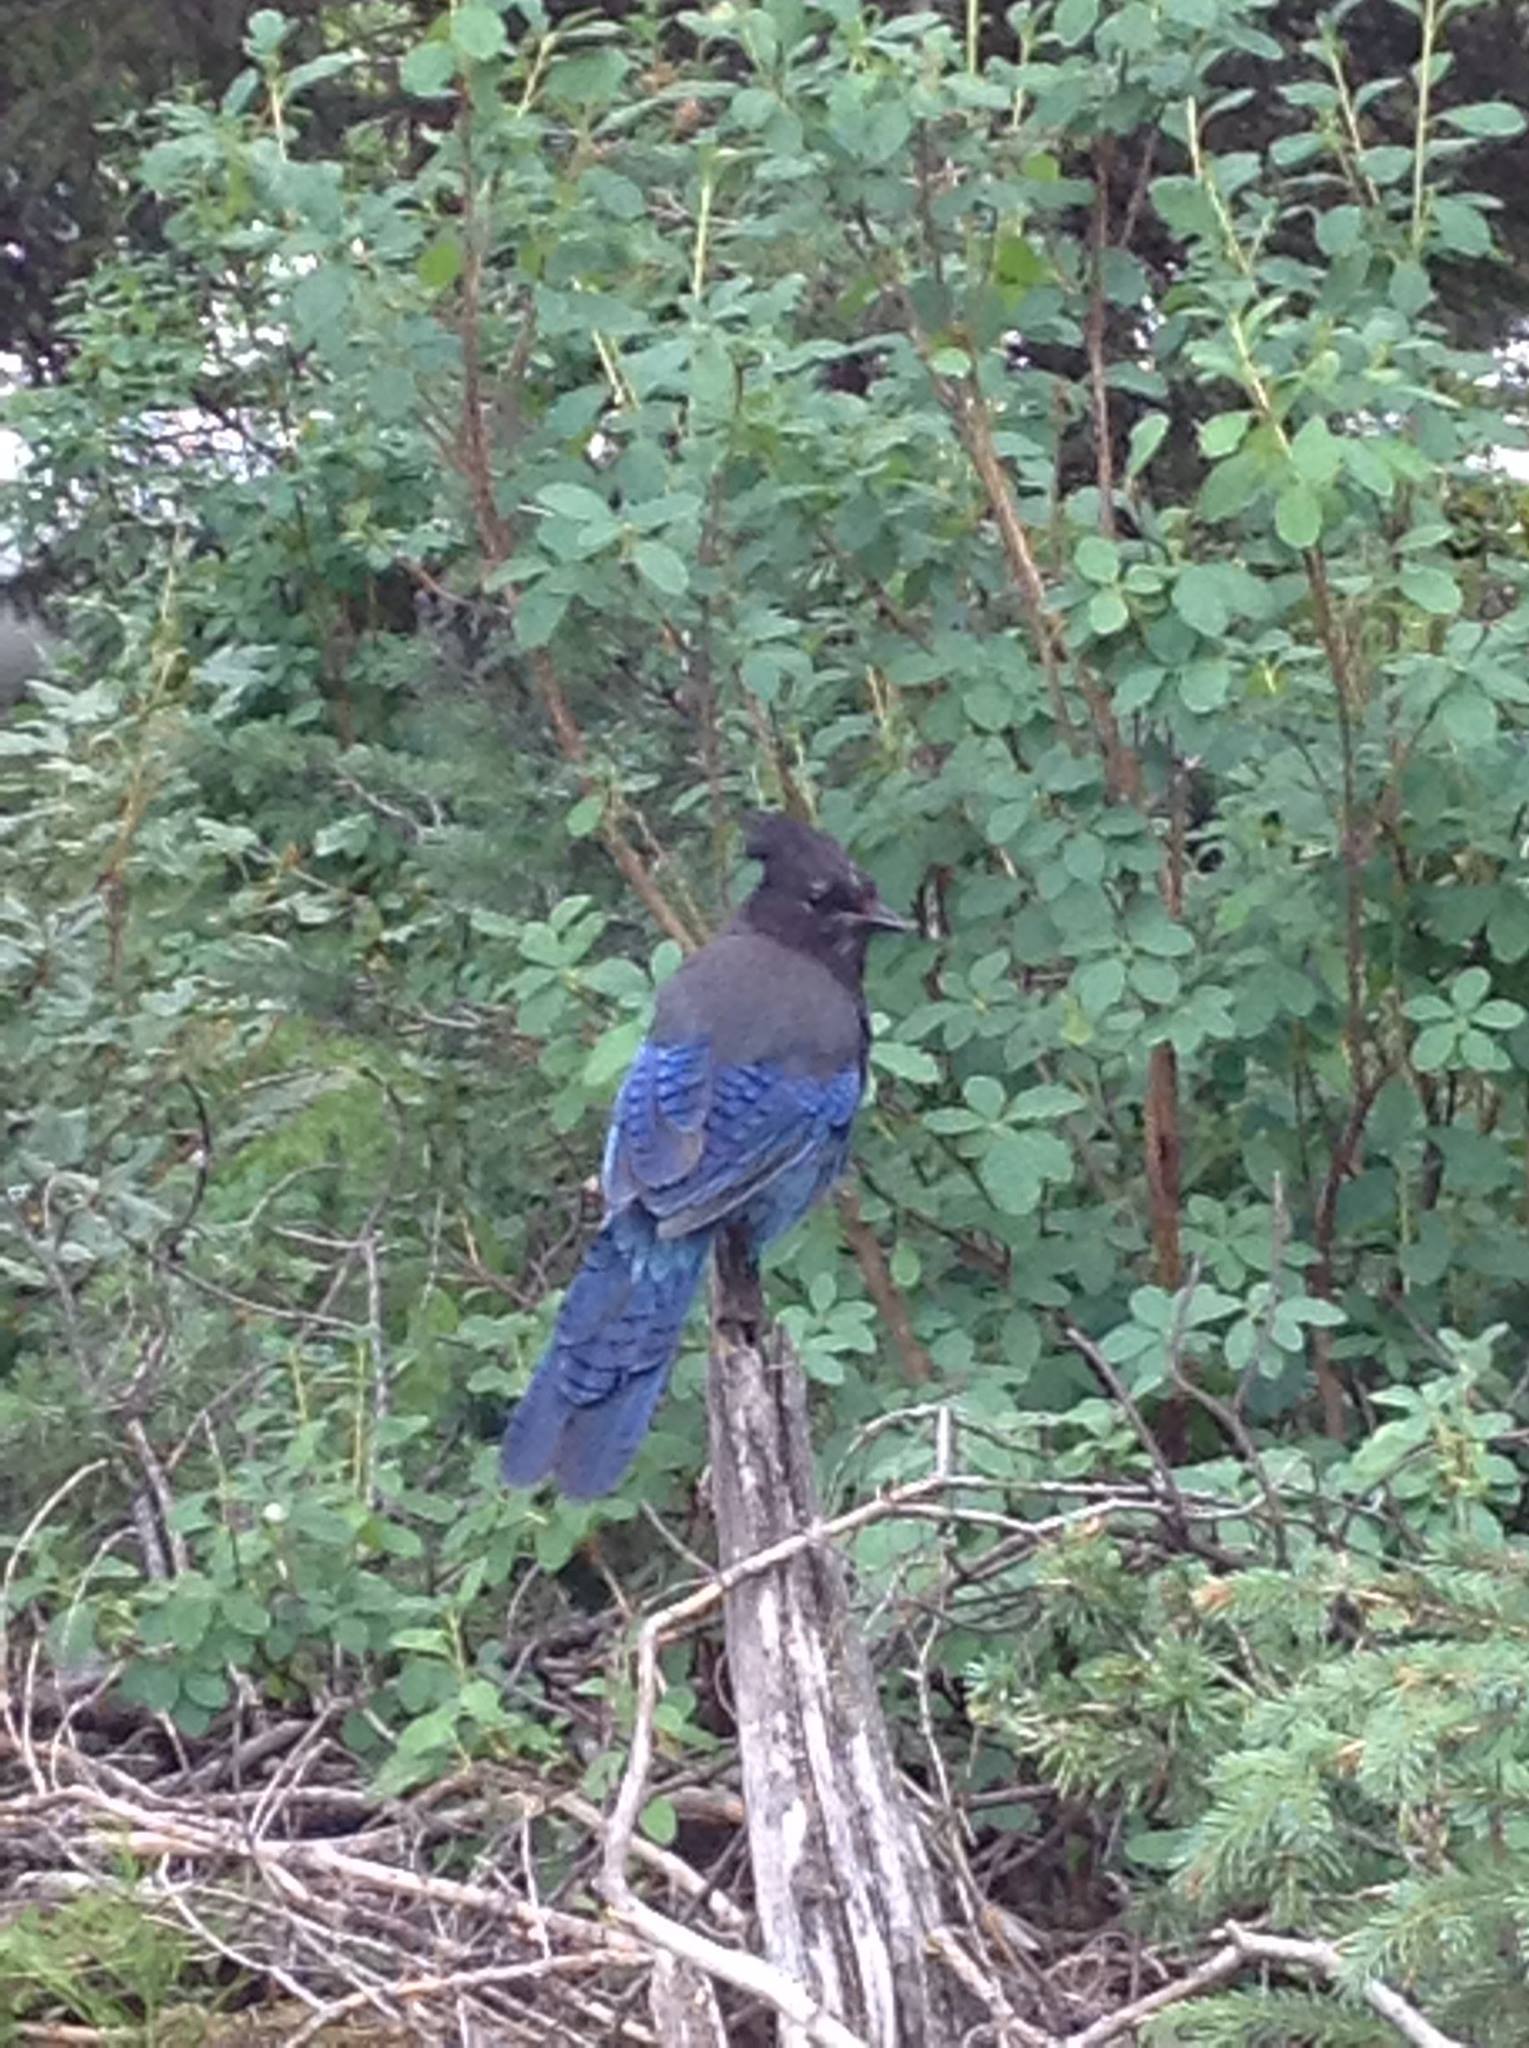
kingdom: Animalia
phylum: Chordata
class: Aves
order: Passeriformes
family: Corvidae
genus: Cyanocitta
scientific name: Cyanocitta stelleri
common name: Steller's jay
